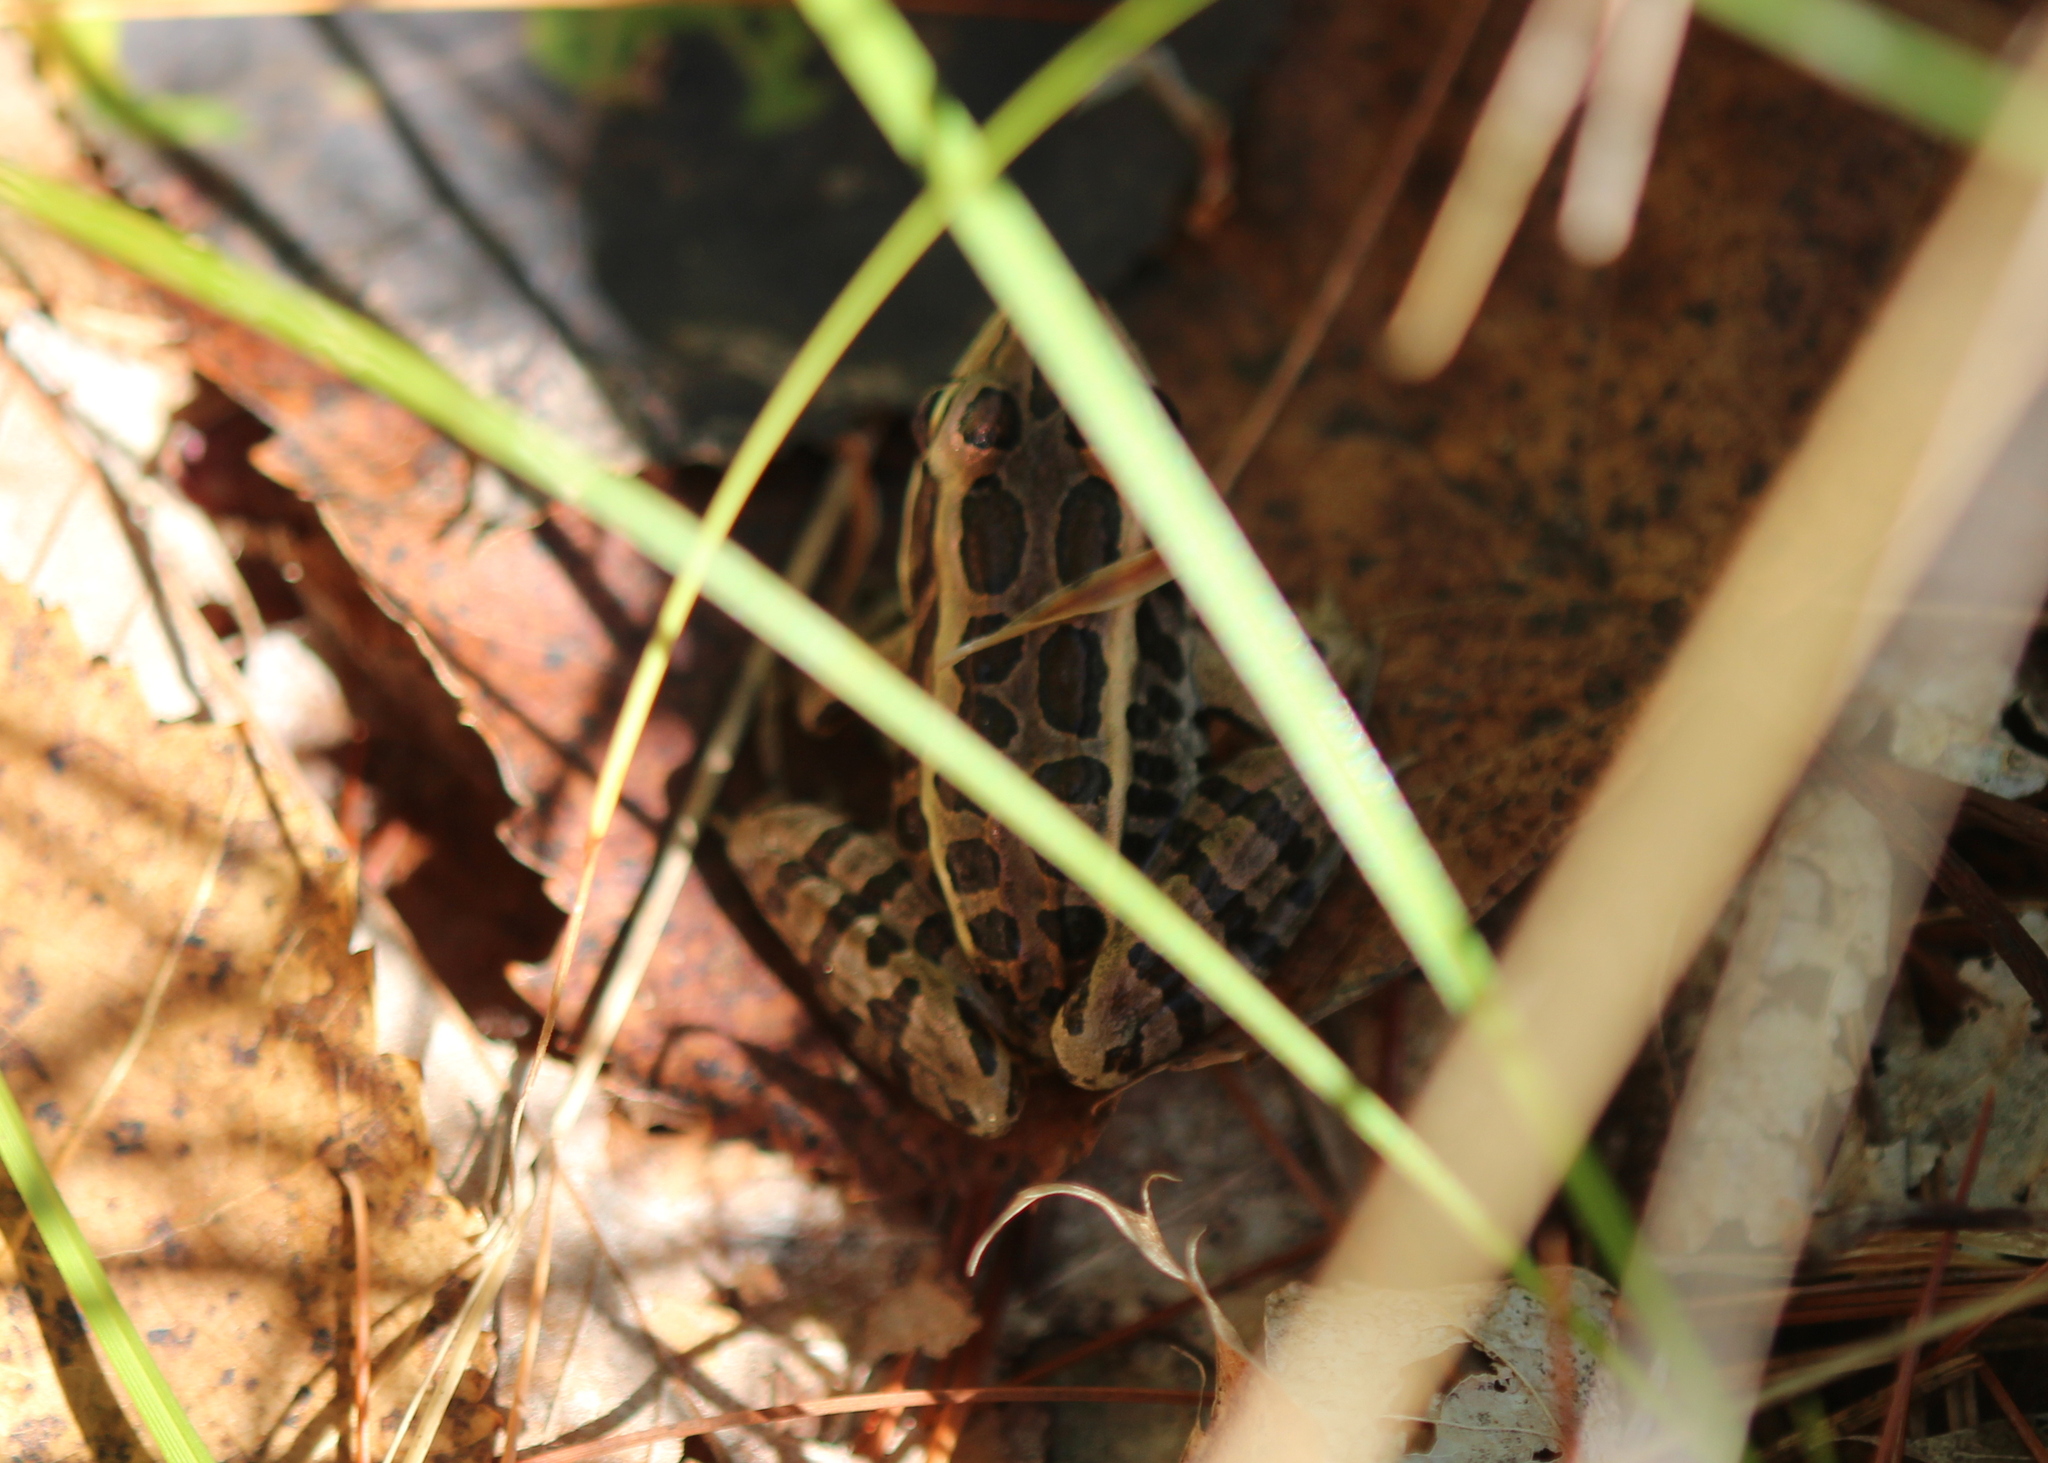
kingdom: Animalia
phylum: Chordata
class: Amphibia
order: Anura
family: Ranidae
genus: Lithobates
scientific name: Lithobates palustris
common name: Pickerel frog
